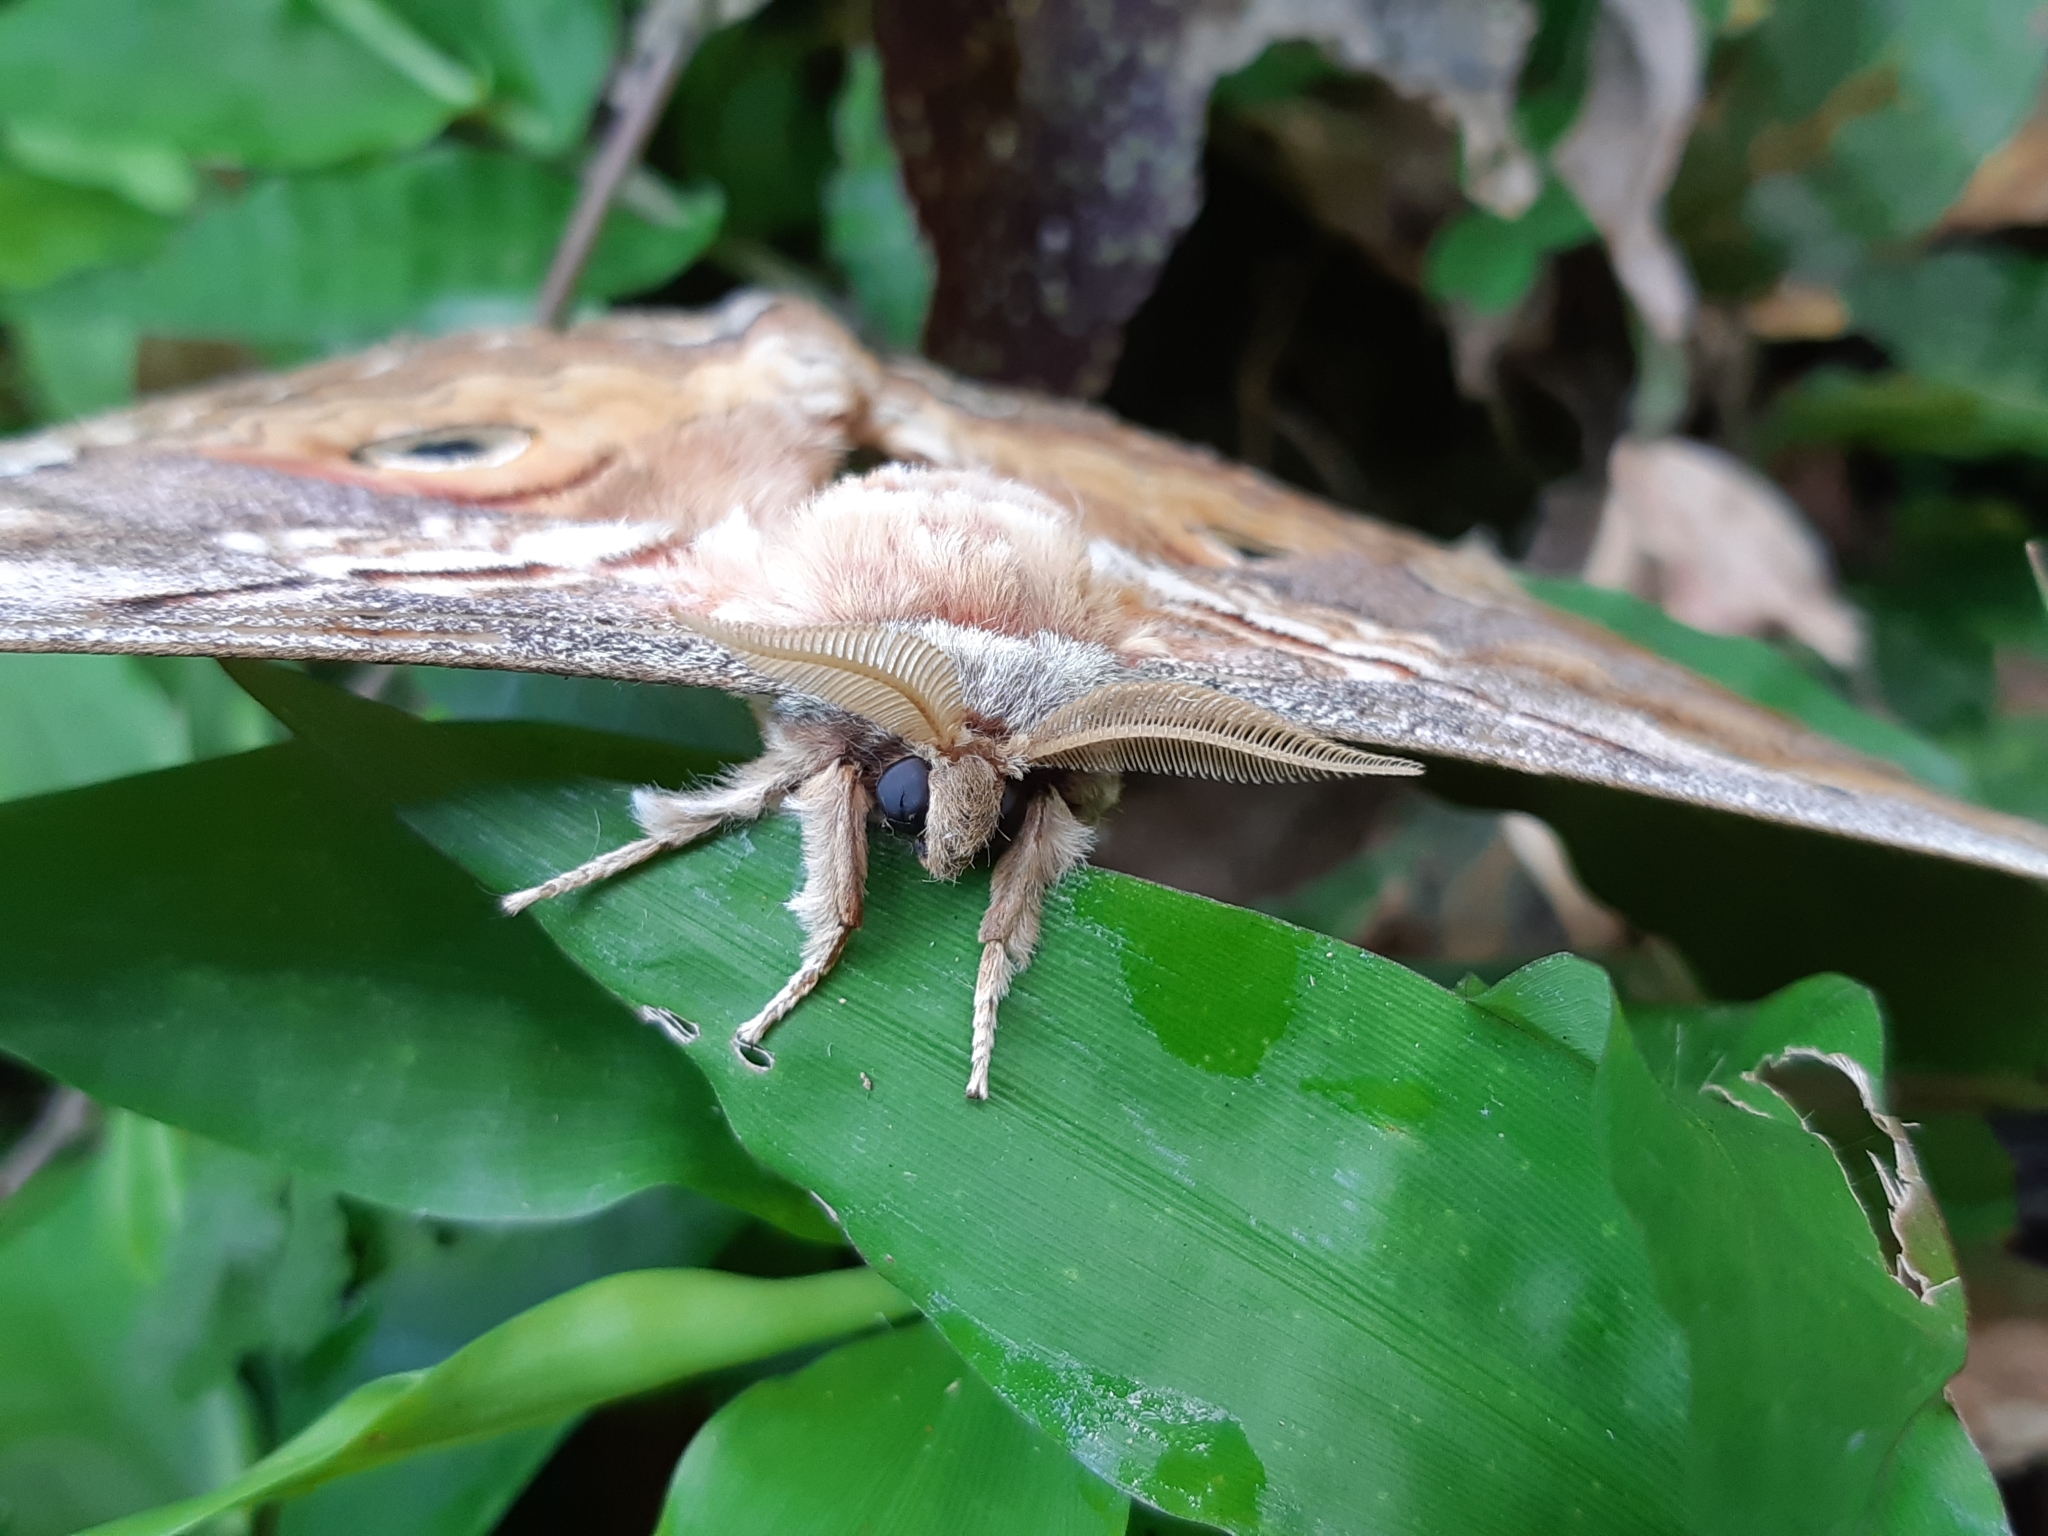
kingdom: Animalia
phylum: Arthropoda
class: Insecta
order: Lepidoptera
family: Saturniidae
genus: Rinaca
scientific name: Rinaca thibeta
